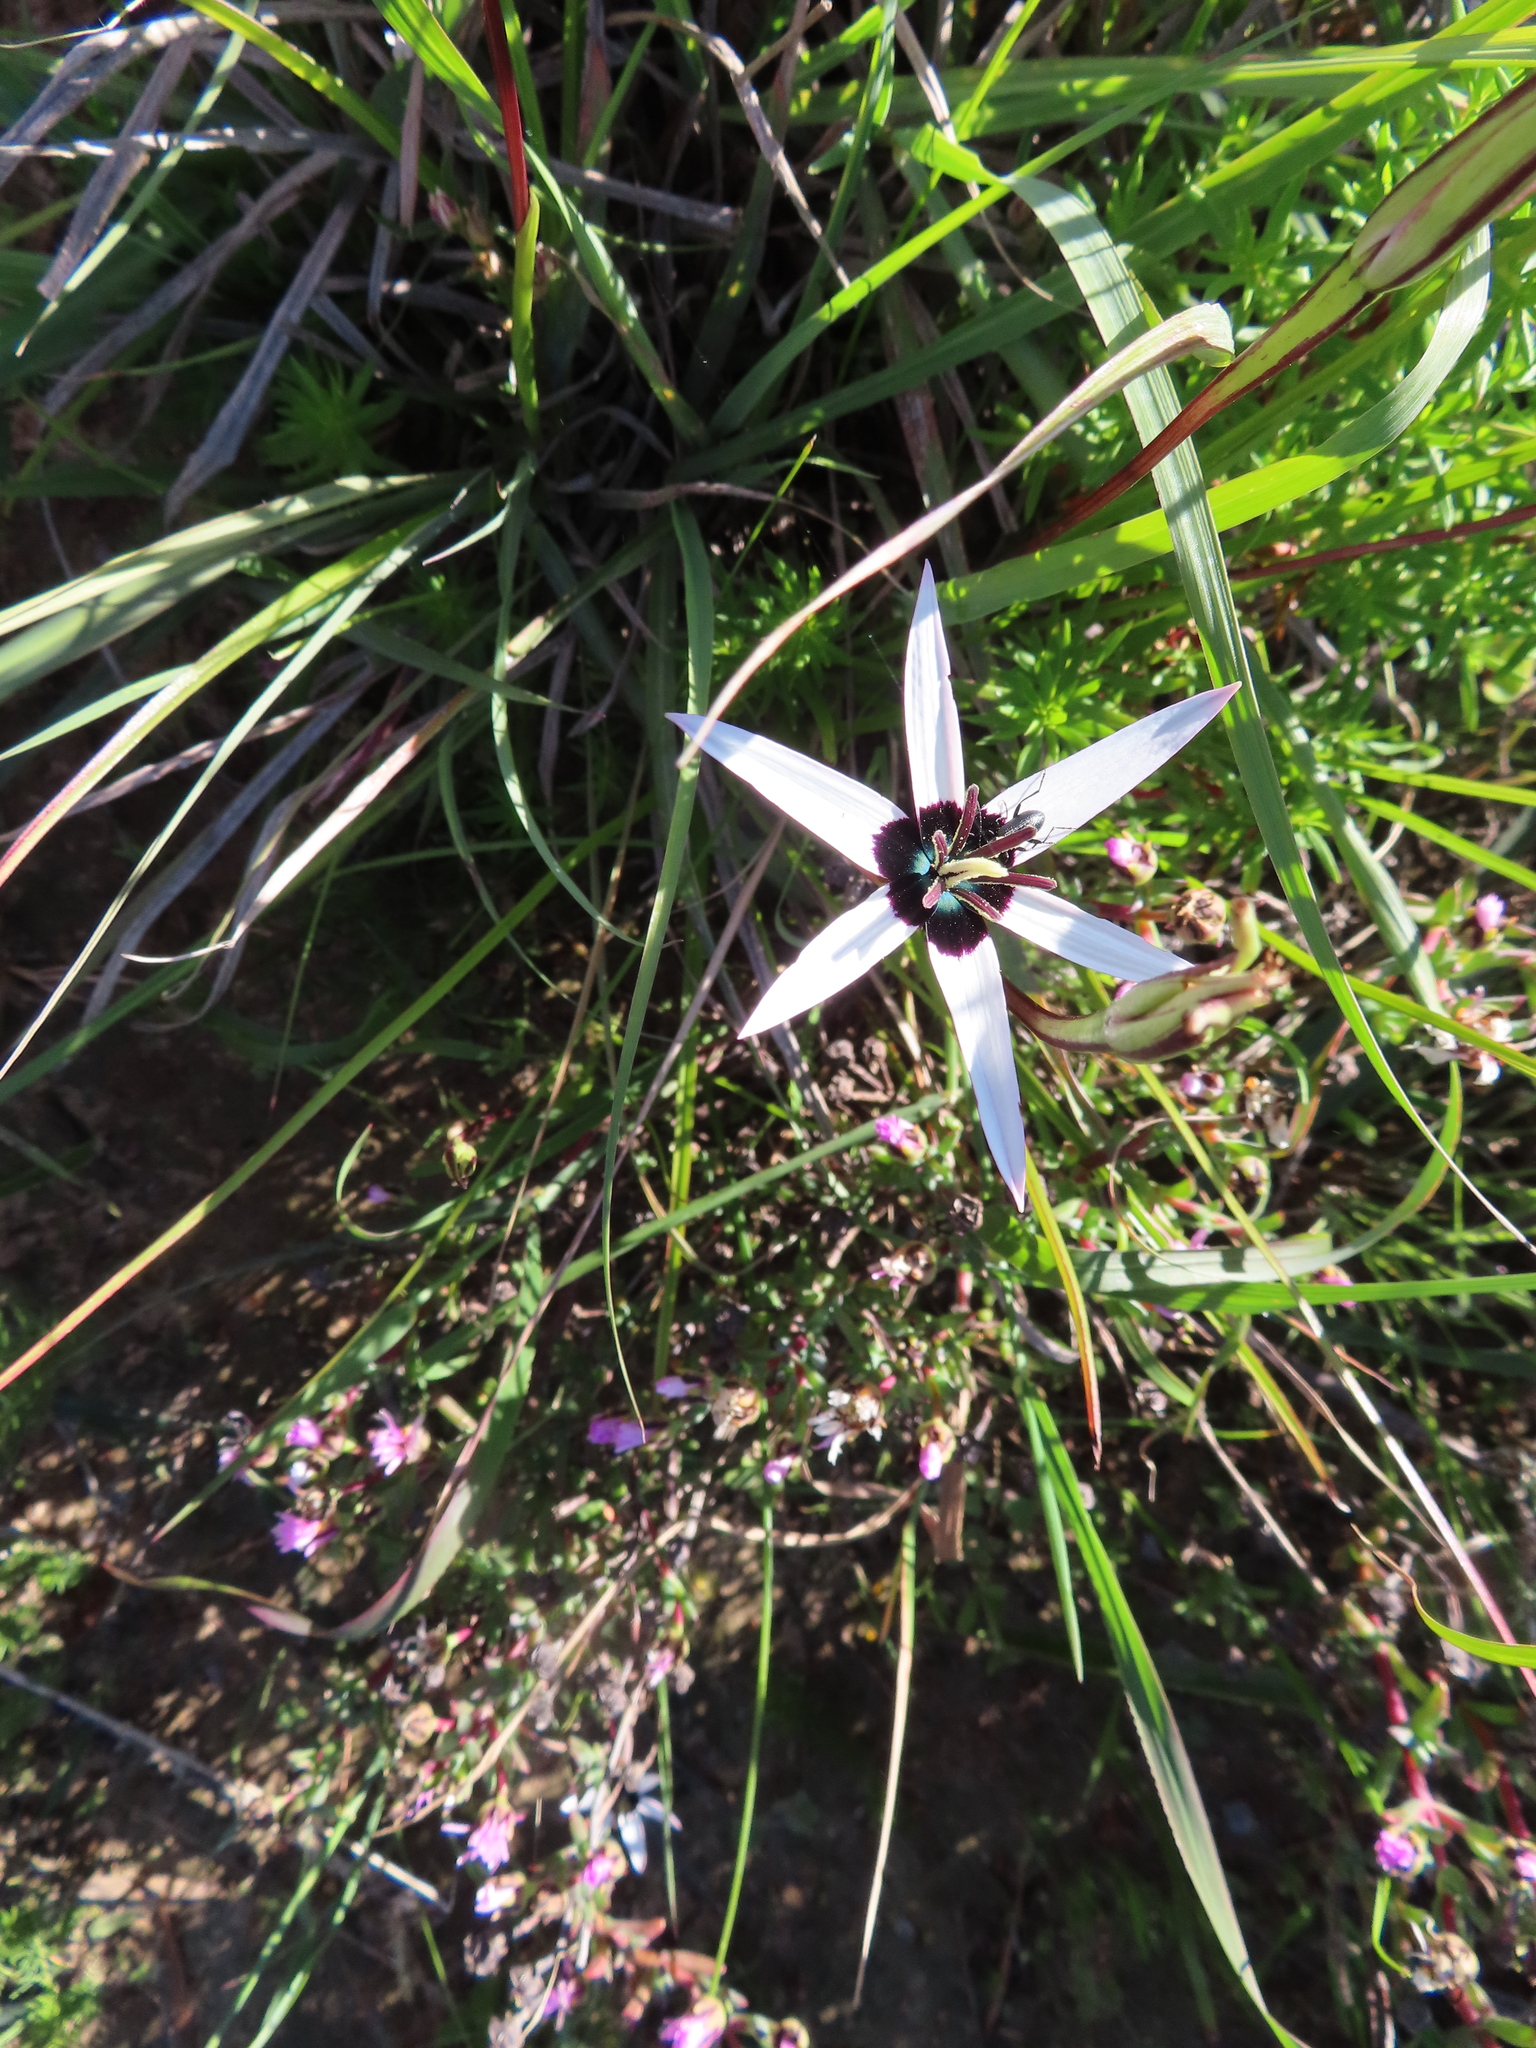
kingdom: Plantae
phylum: Tracheophyta
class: Liliopsida
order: Asparagales
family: Hypoxidaceae
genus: Pauridia
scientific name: Pauridia capensis
